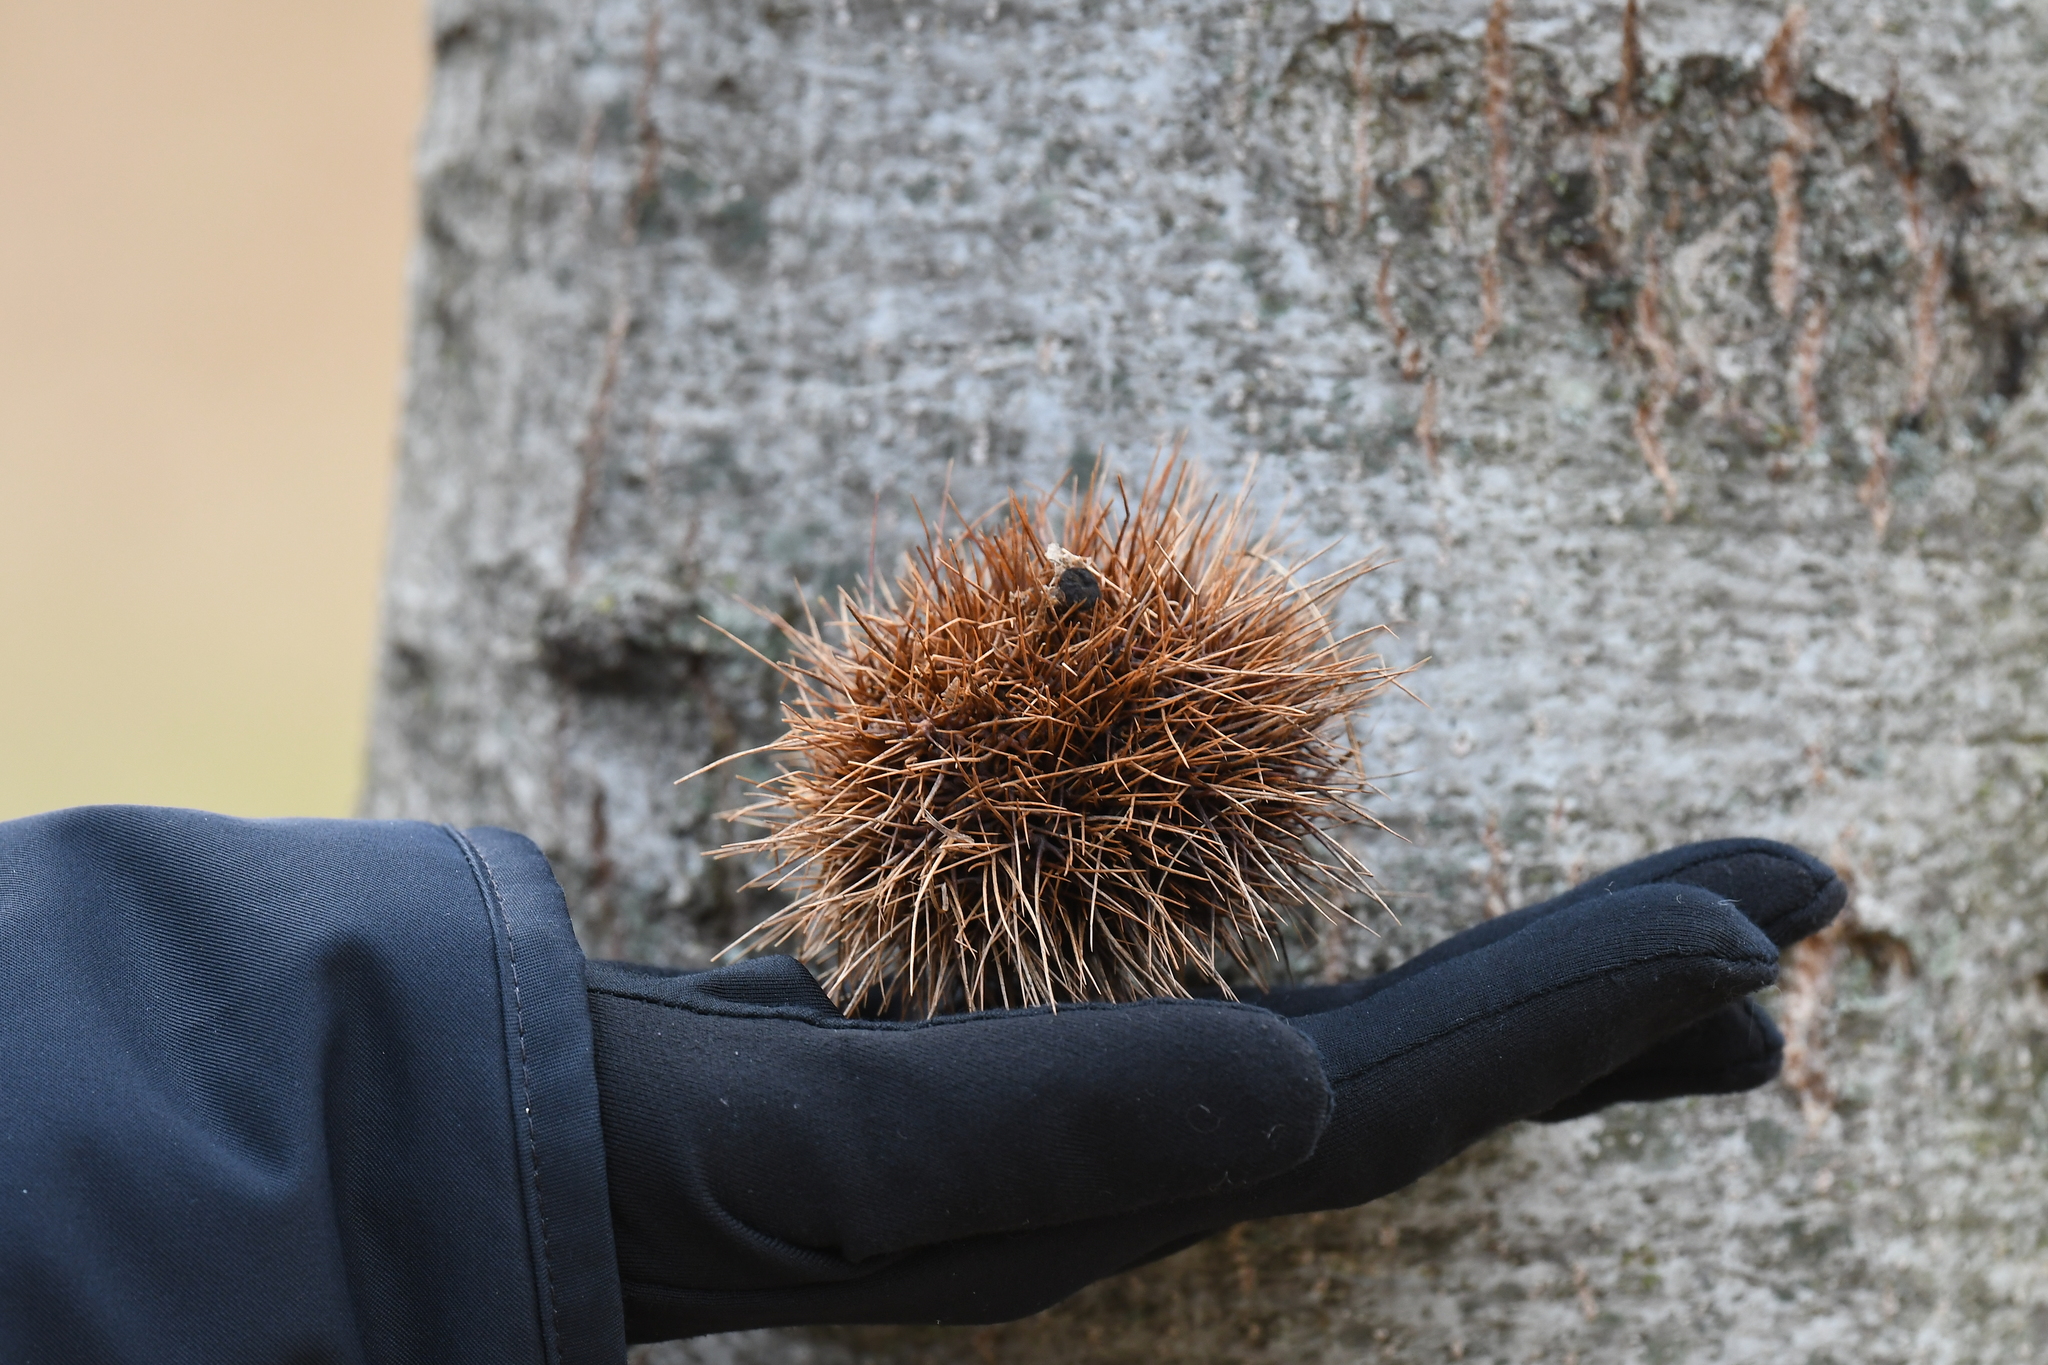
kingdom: Plantae
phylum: Tracheophyta
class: Magnoliopsida
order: Fagales
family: Fagaceae
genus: Castanea
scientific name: Castanea sativa
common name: Sweet chestnut
